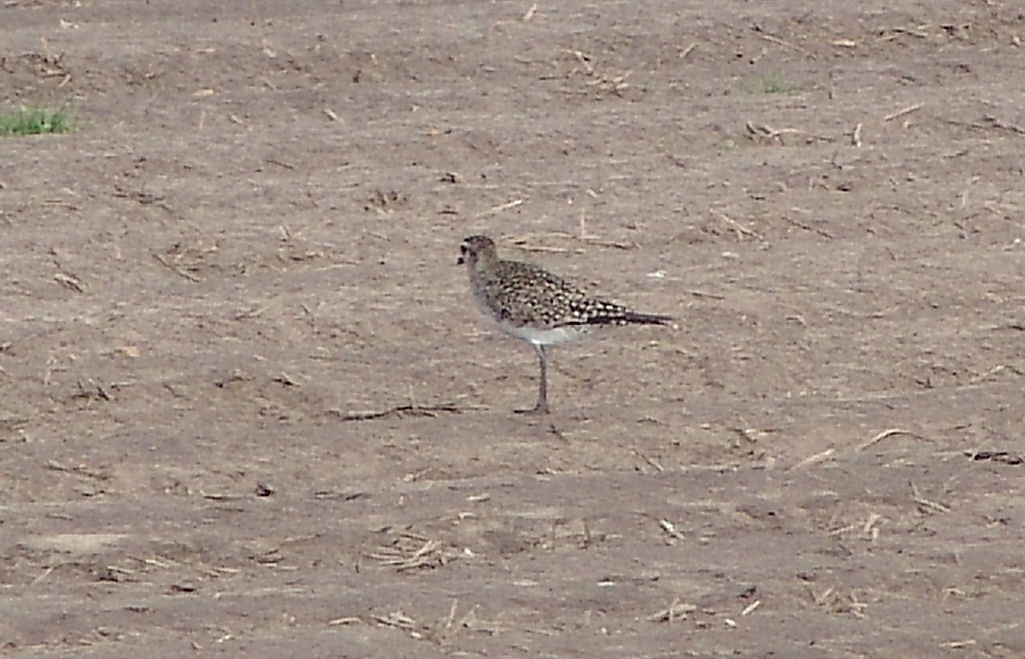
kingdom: Animalia
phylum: Chordata
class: Aves
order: Charadriiformes
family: Charadriidae
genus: Pluvialis
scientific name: Pluvialis dominica
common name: American golden plover
